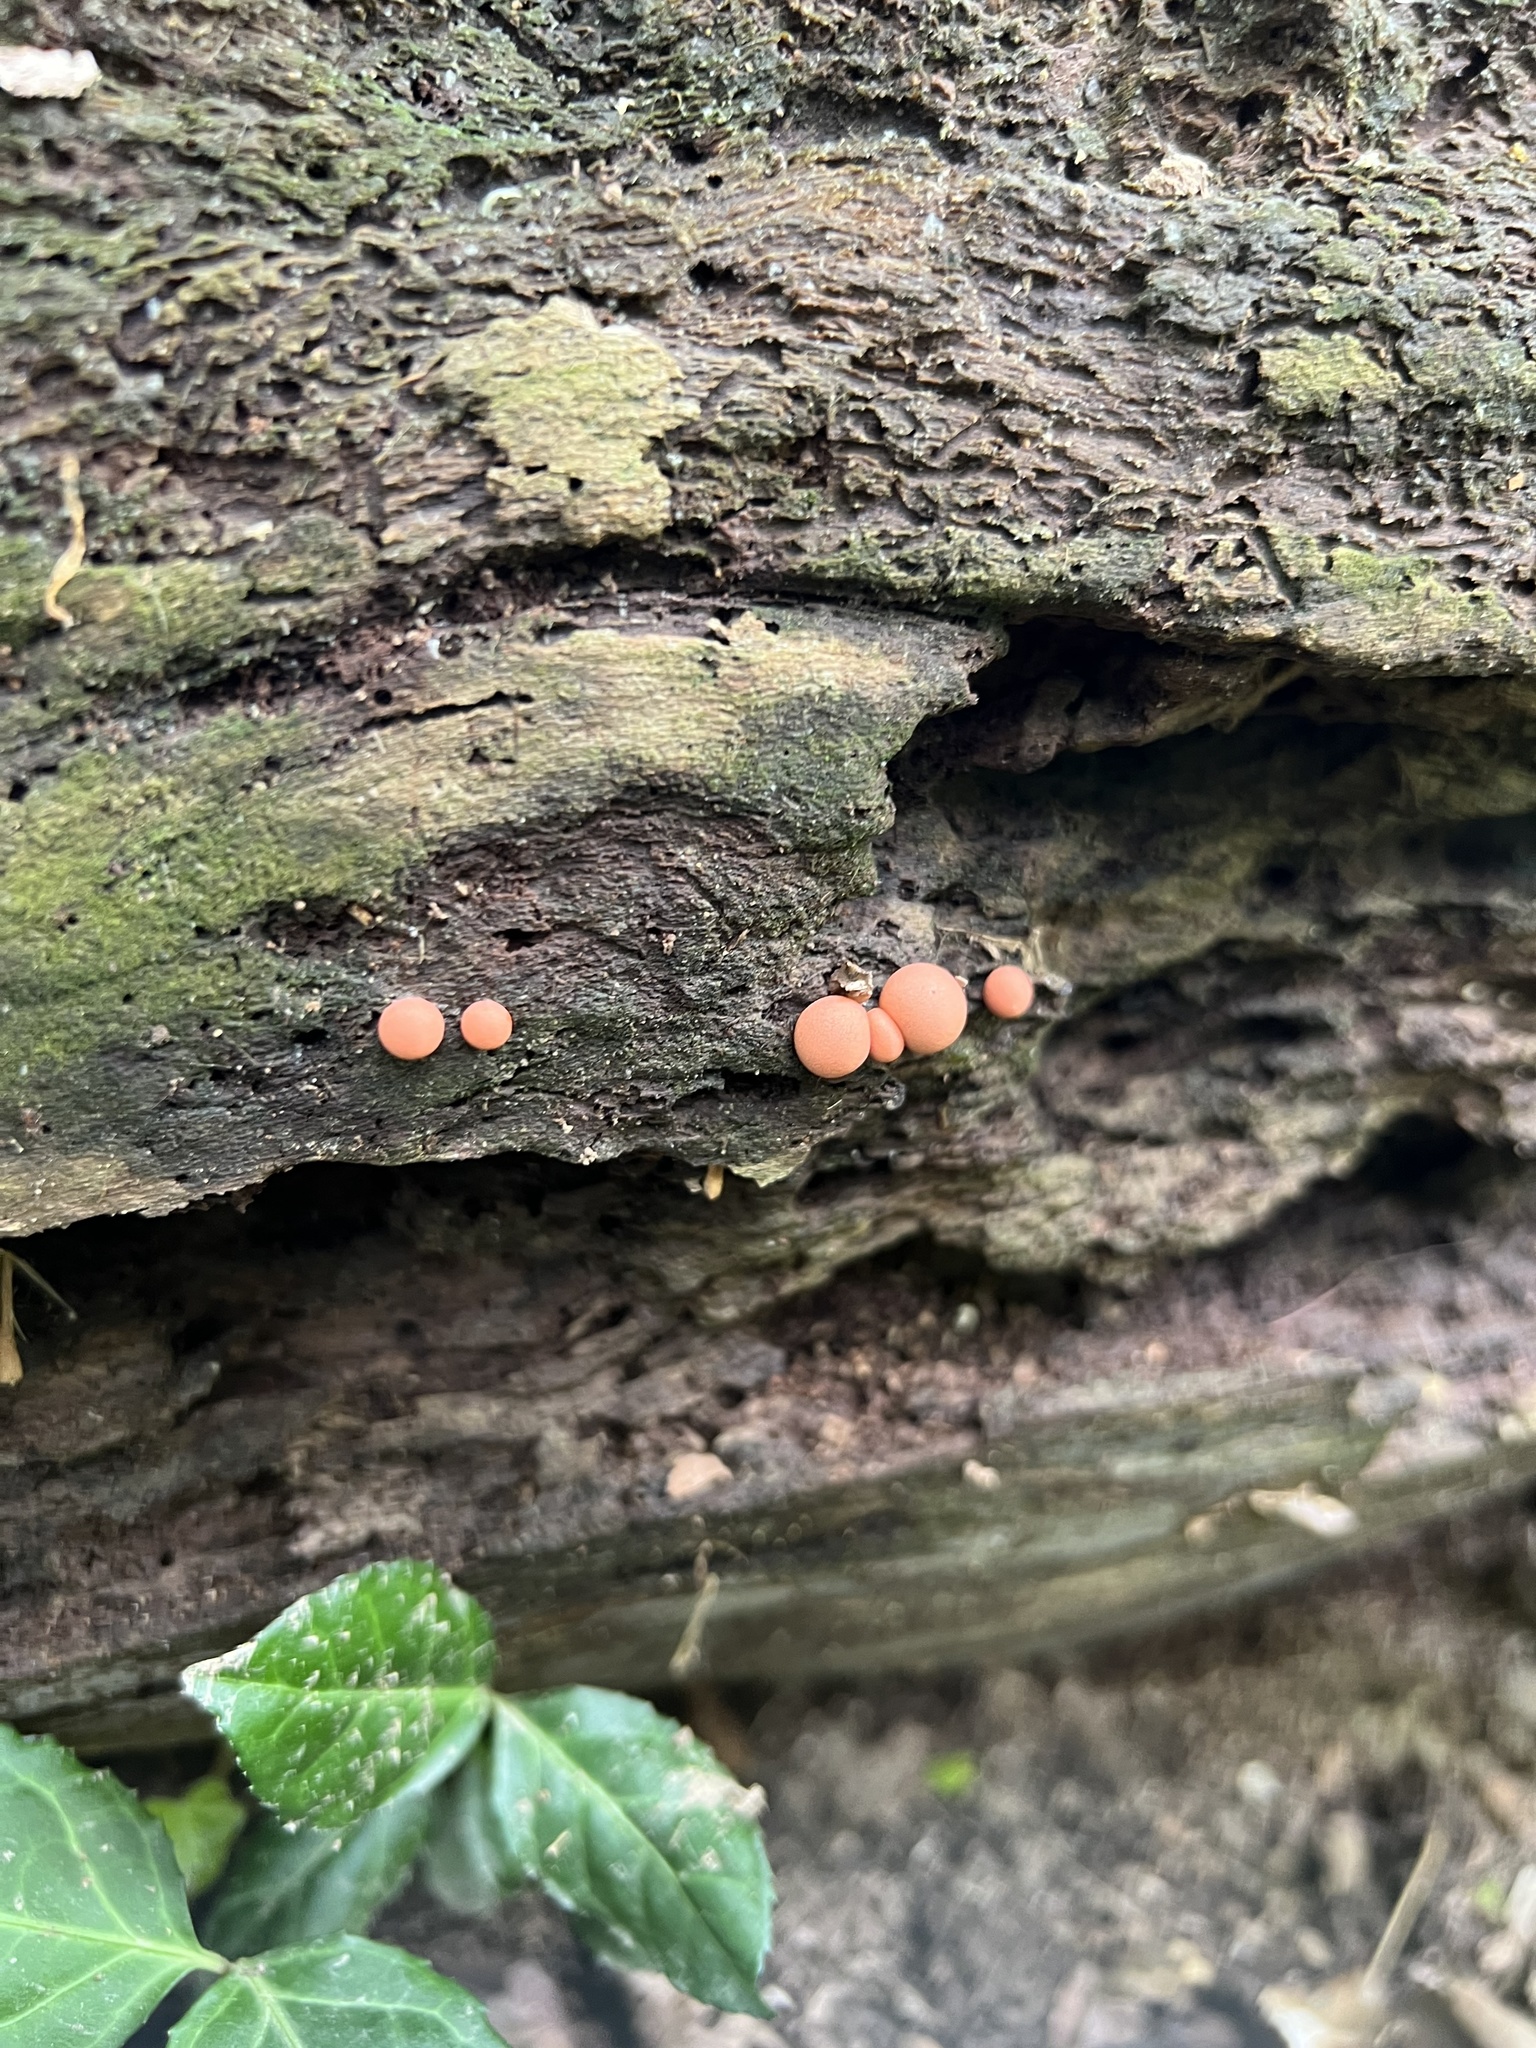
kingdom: Protozoa
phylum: Mycetozoa
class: Myxomycetes
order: Cribrariales
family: Tubiferaceae
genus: Lycogala
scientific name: Lycogala epidendrum
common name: Wolf's milk
